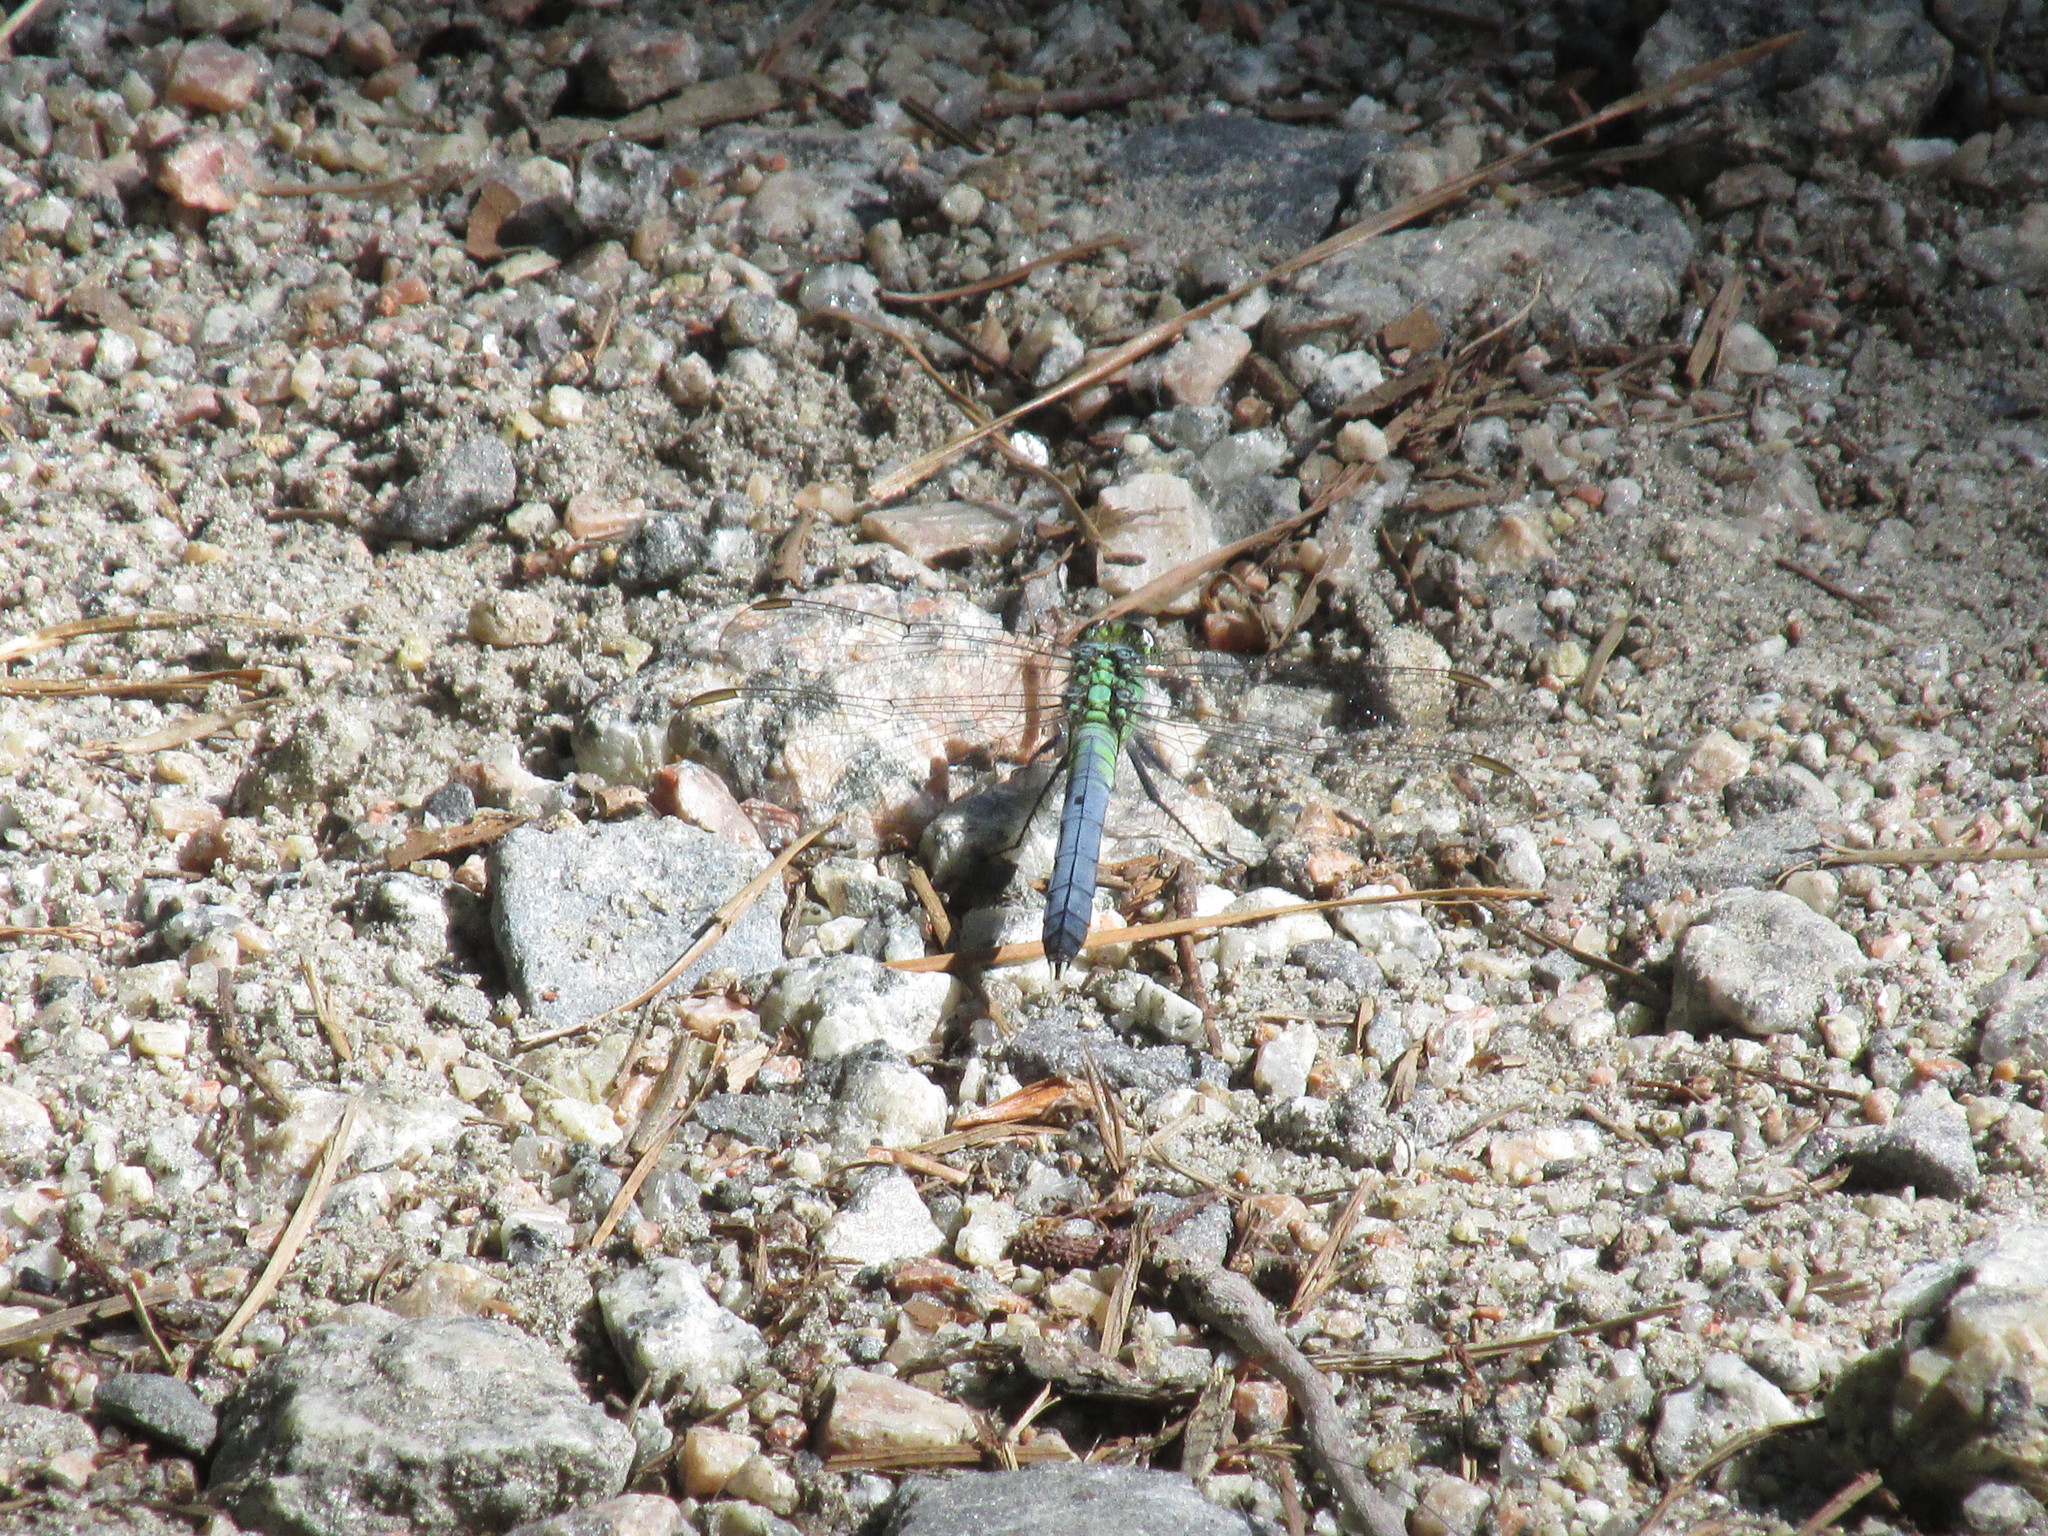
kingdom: Animalia
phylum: Arthropoda
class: Insecta
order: Odonata
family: Libellulidae
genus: Erythemis
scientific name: Erythemis simplicicollis
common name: Eastern pondhawk
